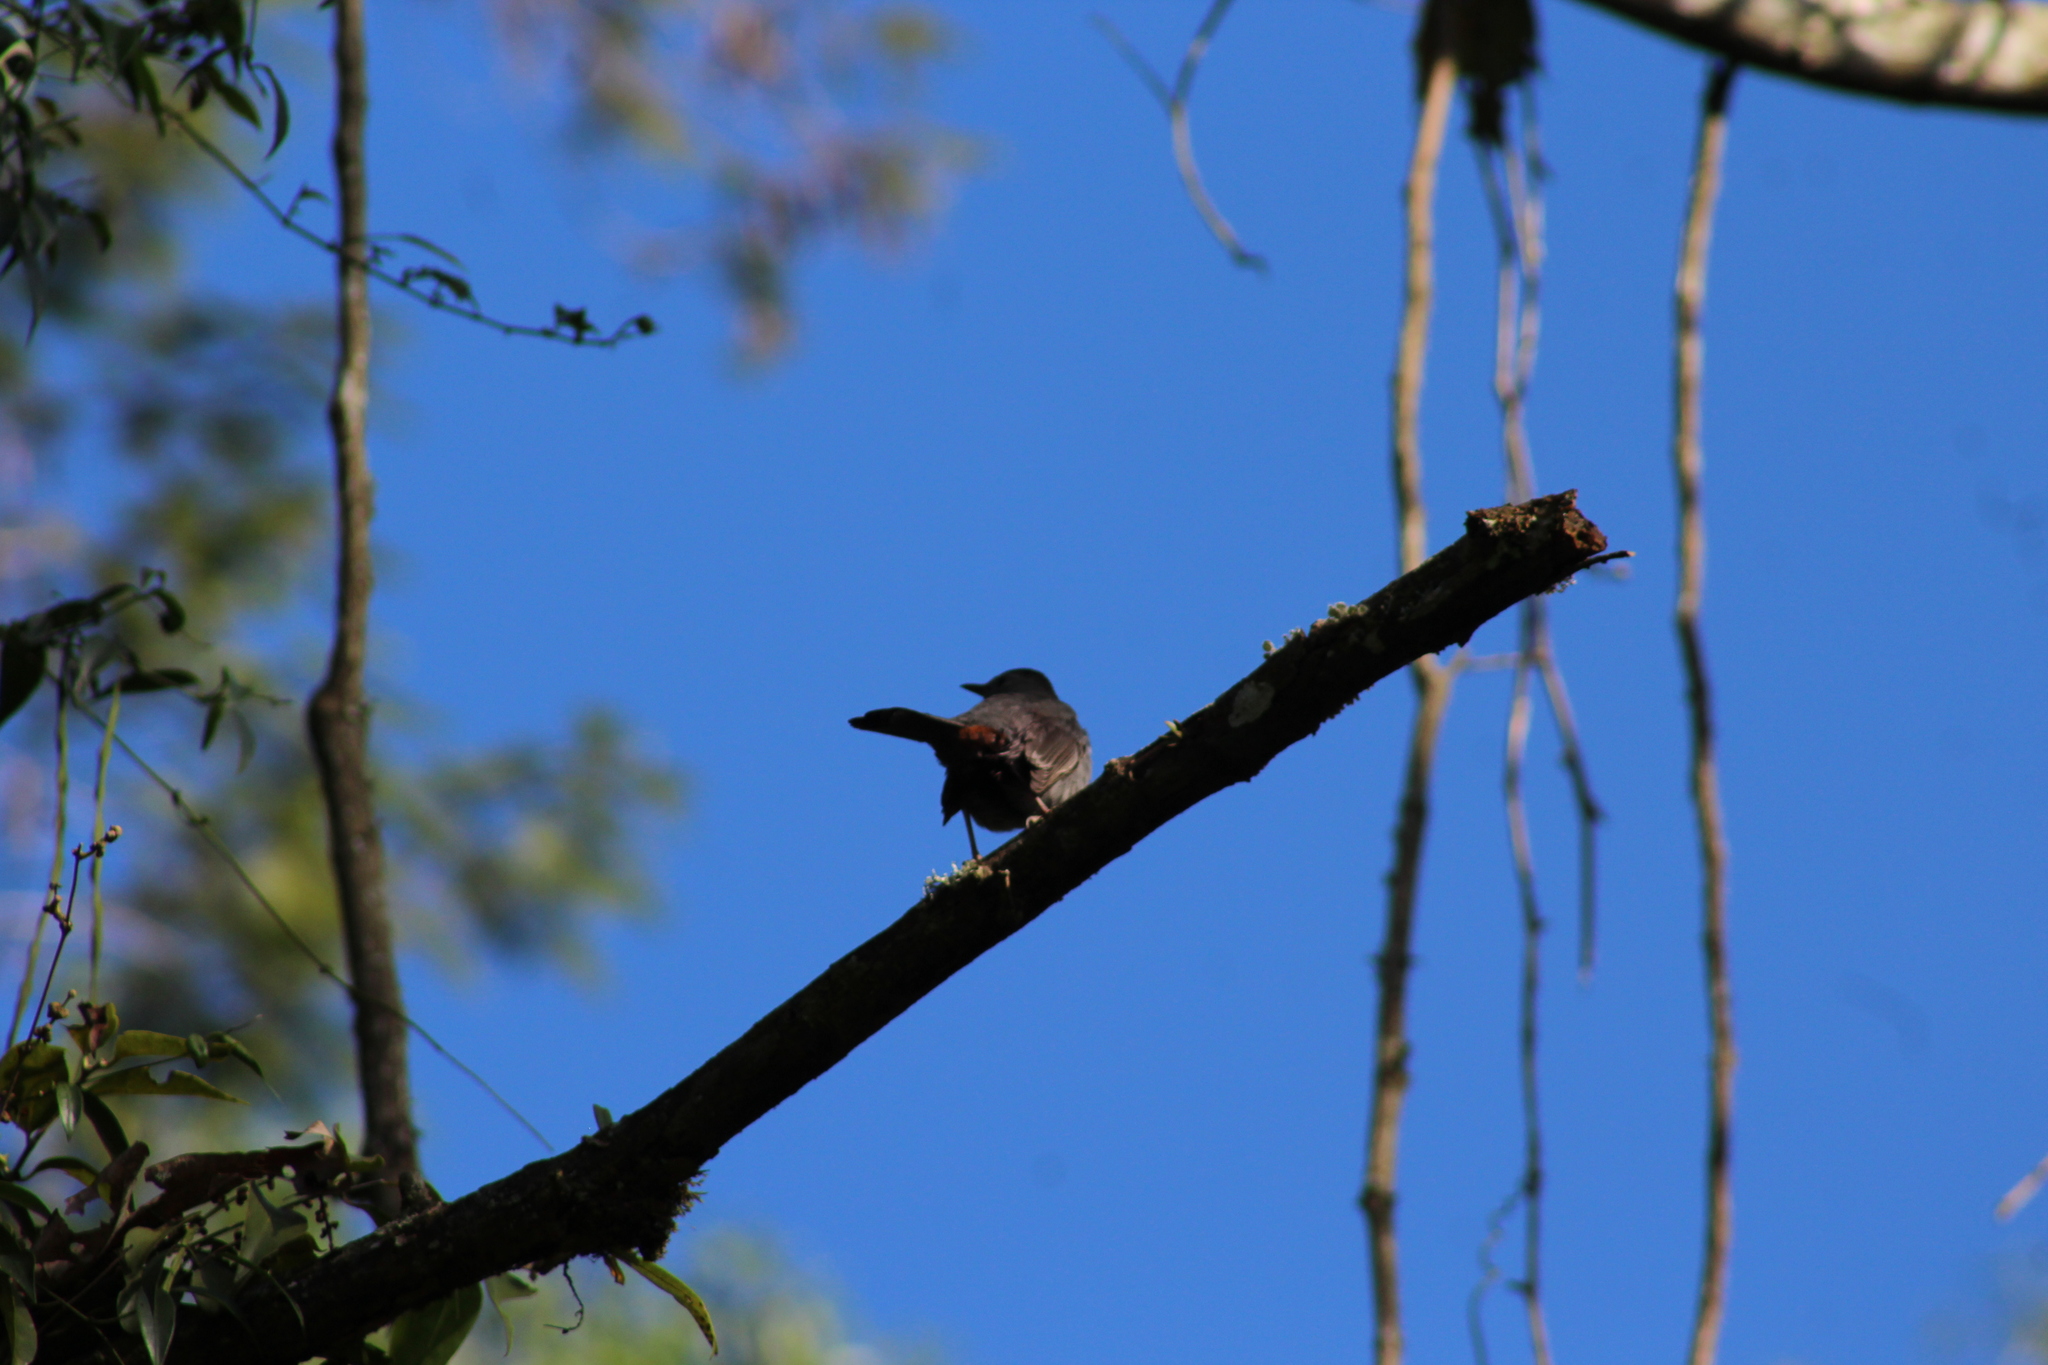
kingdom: Animalia
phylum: Chordata
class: Aves
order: Passeriformes
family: Mimidae
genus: Dumetella
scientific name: Dumetella carolinensis
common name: Gray catbird
